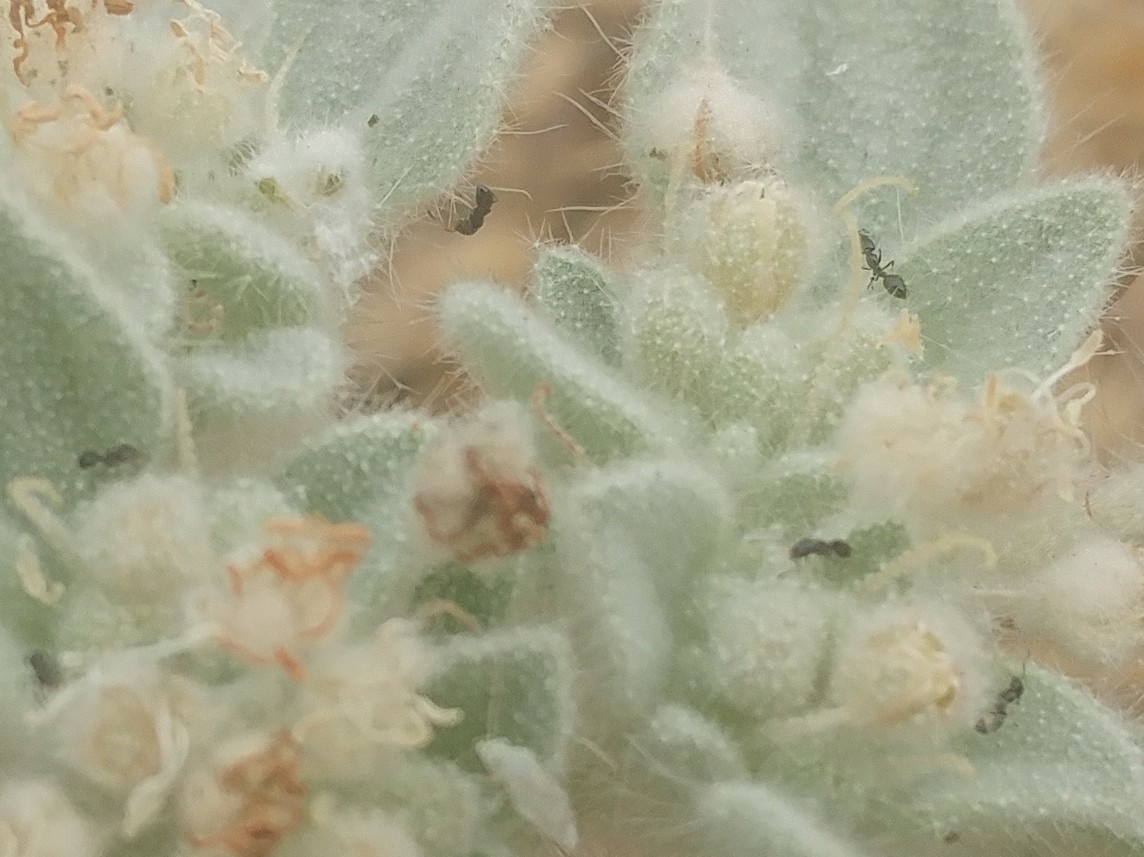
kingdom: Animalia
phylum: Arthropoda
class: Insecta
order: Hymenoptera
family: Formicidae
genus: Monomorium
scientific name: Monomorium ergatogyna
